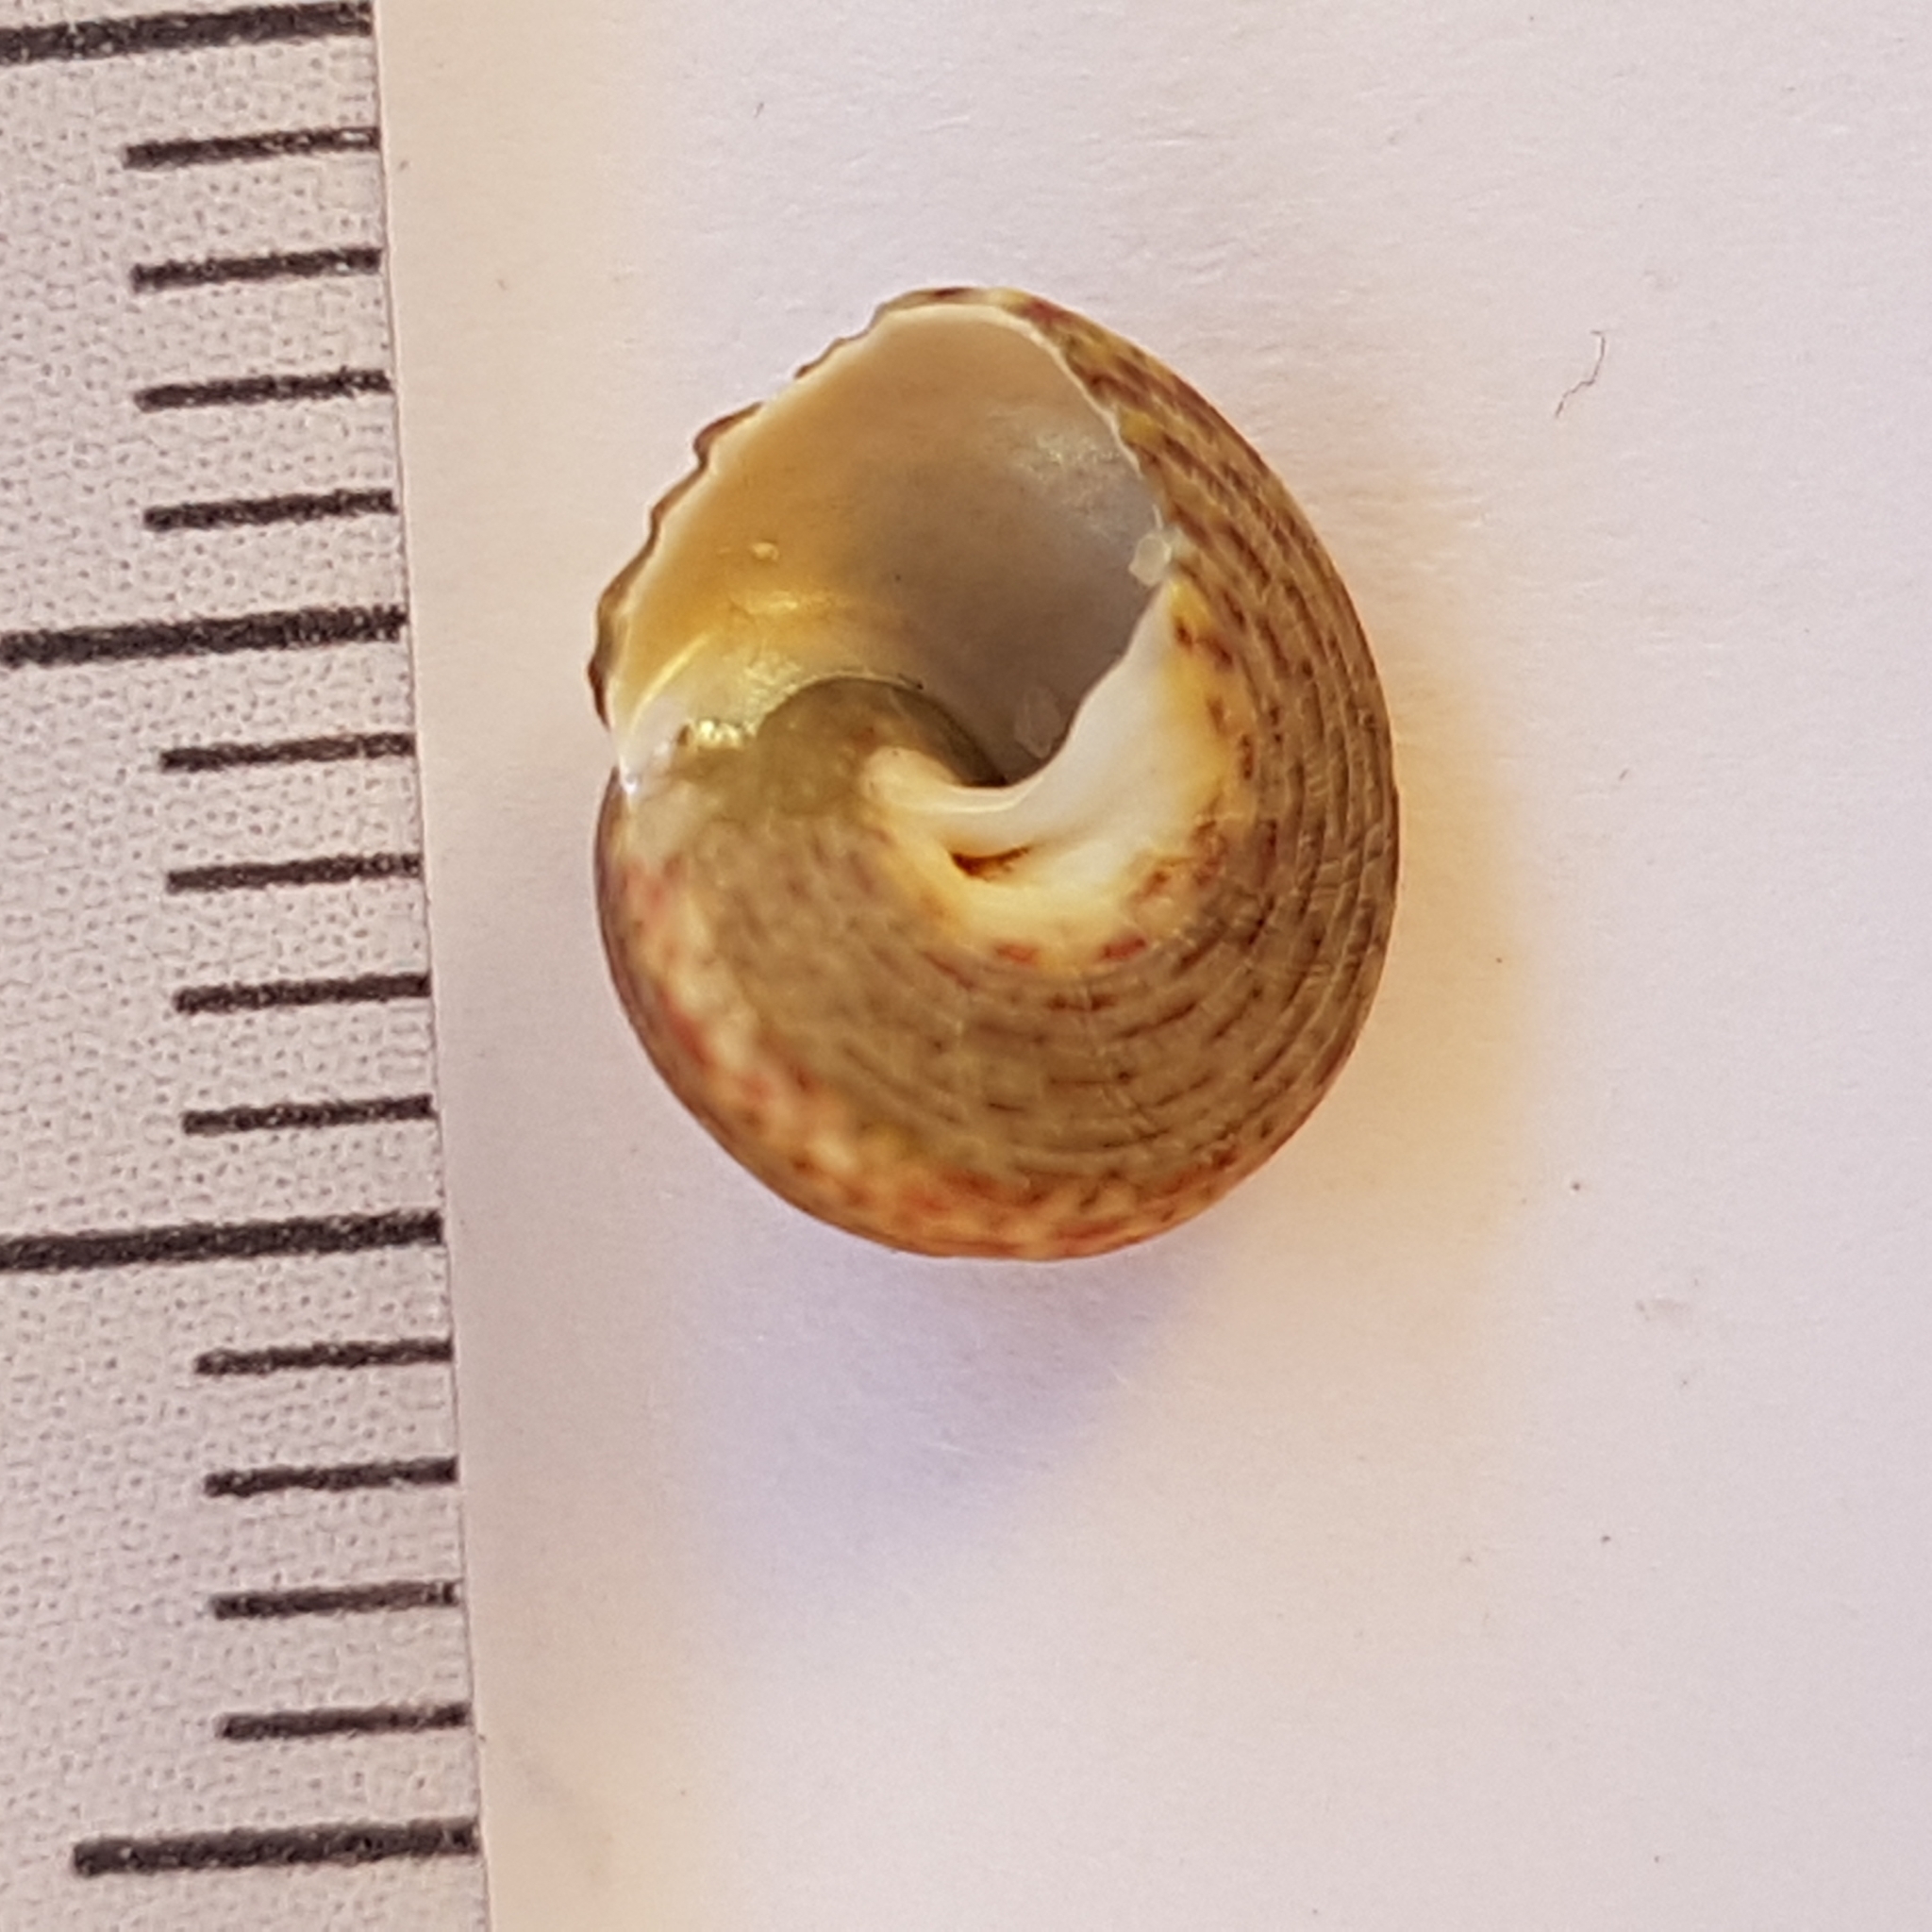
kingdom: Animalia
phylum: Mollusca
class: Gastropoda
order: Trochida
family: Trochidae
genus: Steromphala
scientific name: Steromphala pennanti
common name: Pennant's top shell
